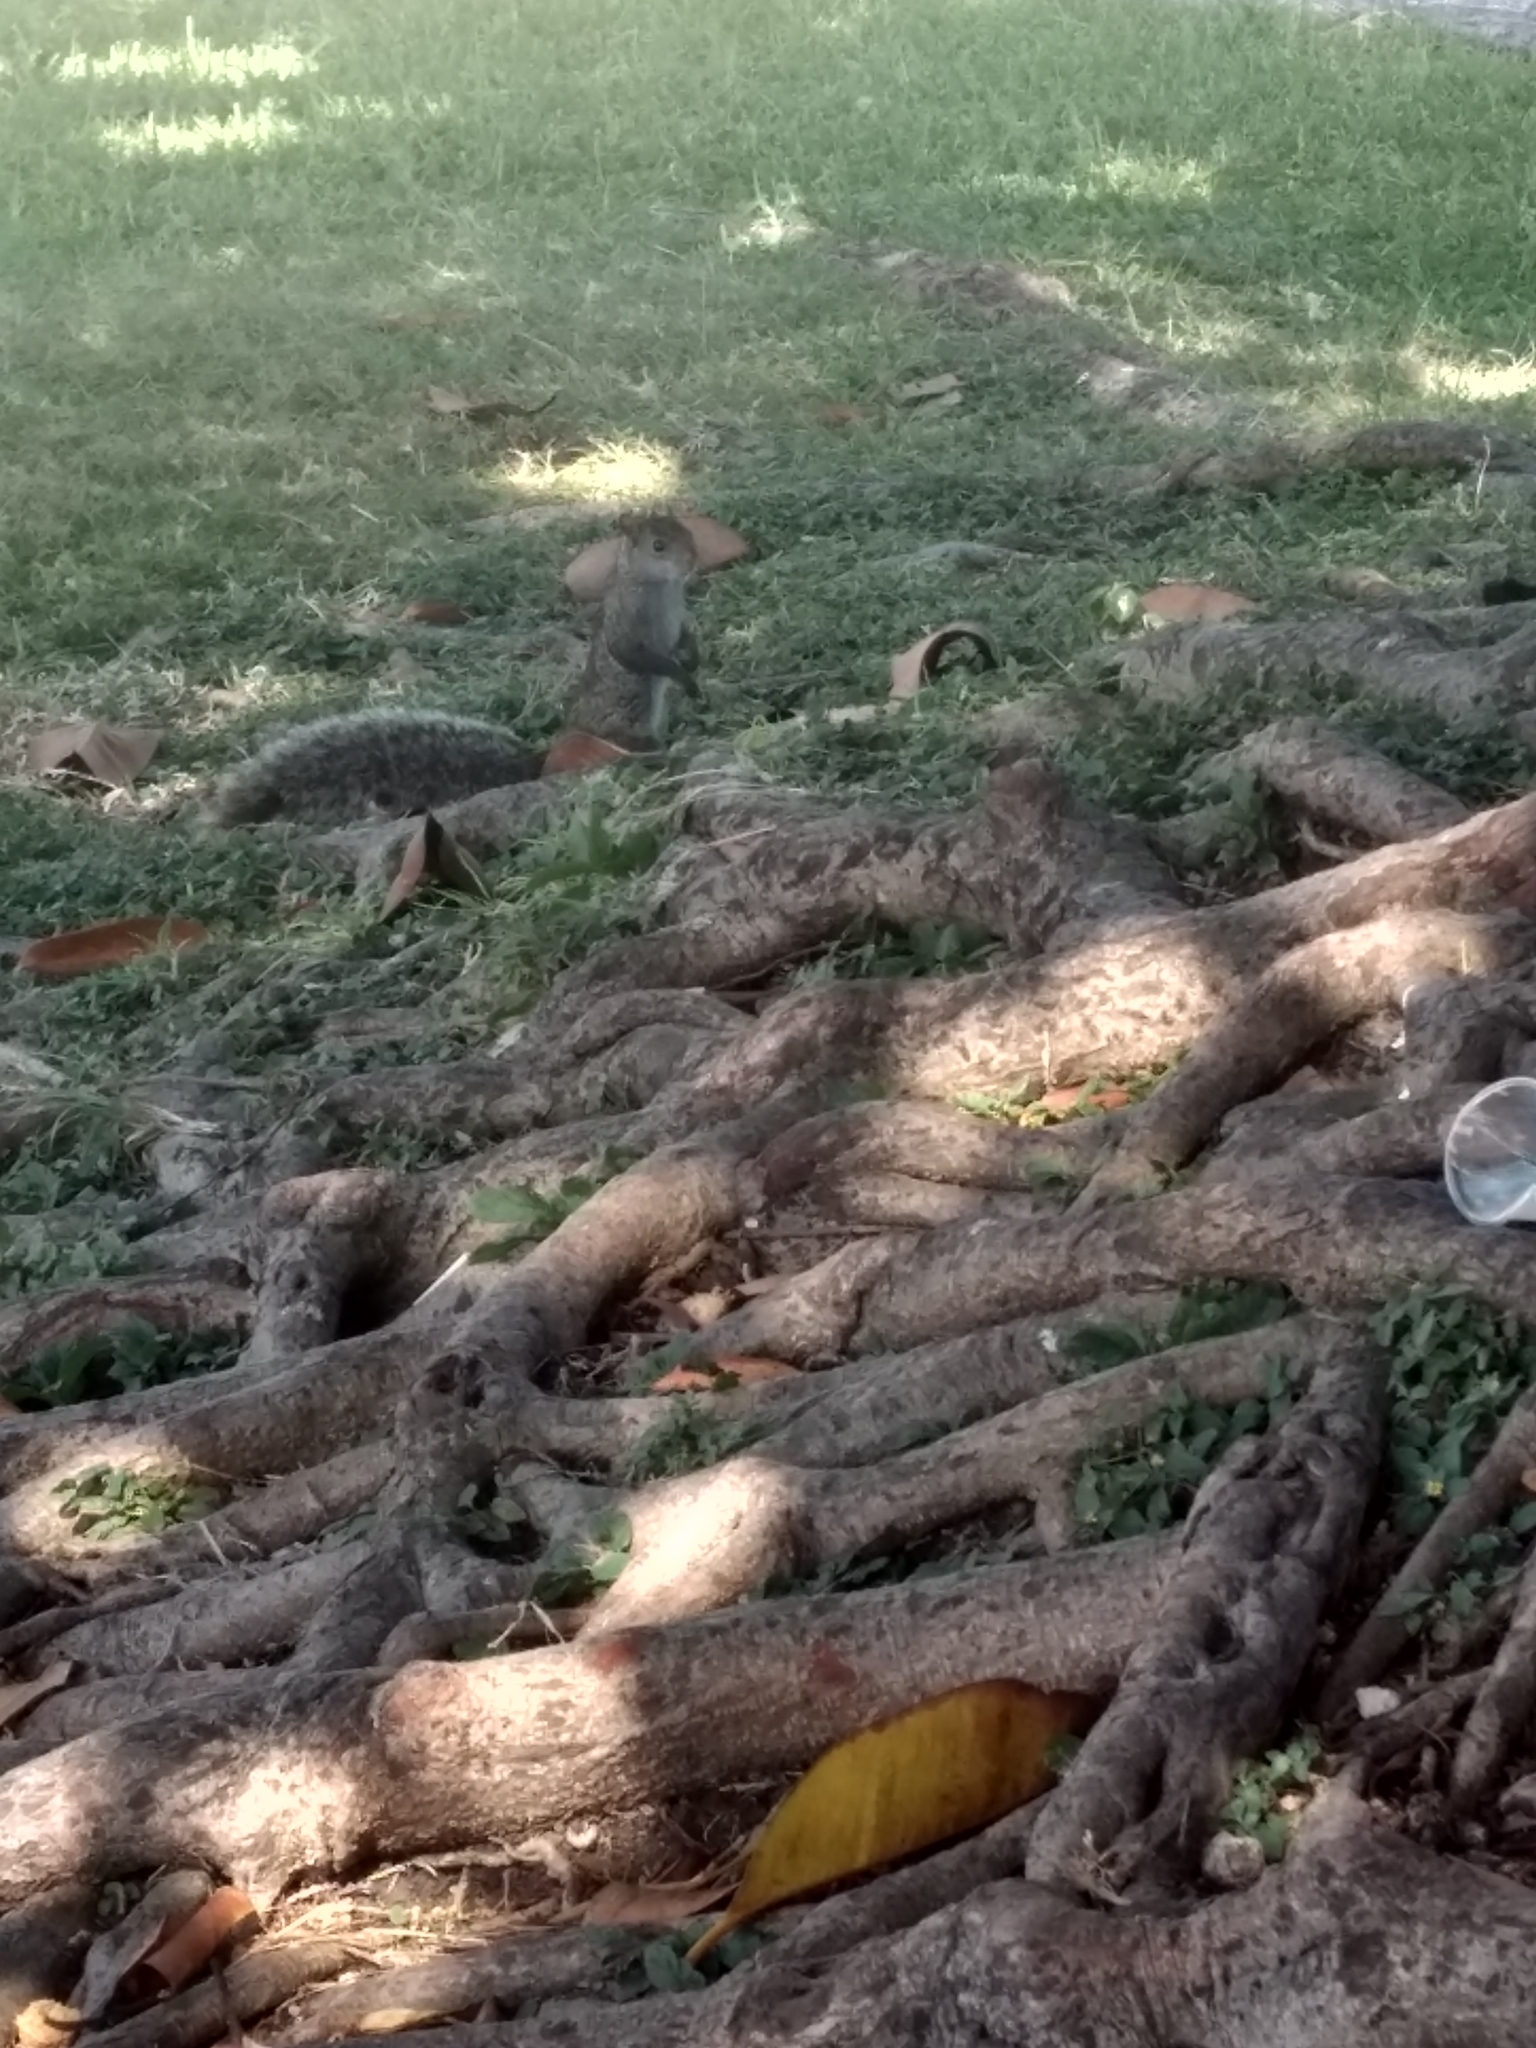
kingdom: Animalia
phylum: Chordata
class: Mammalia
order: Rodentia
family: Sciuridae
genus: Sciurus
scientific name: Sciurus yucatanensis
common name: Yucatan squirrel
